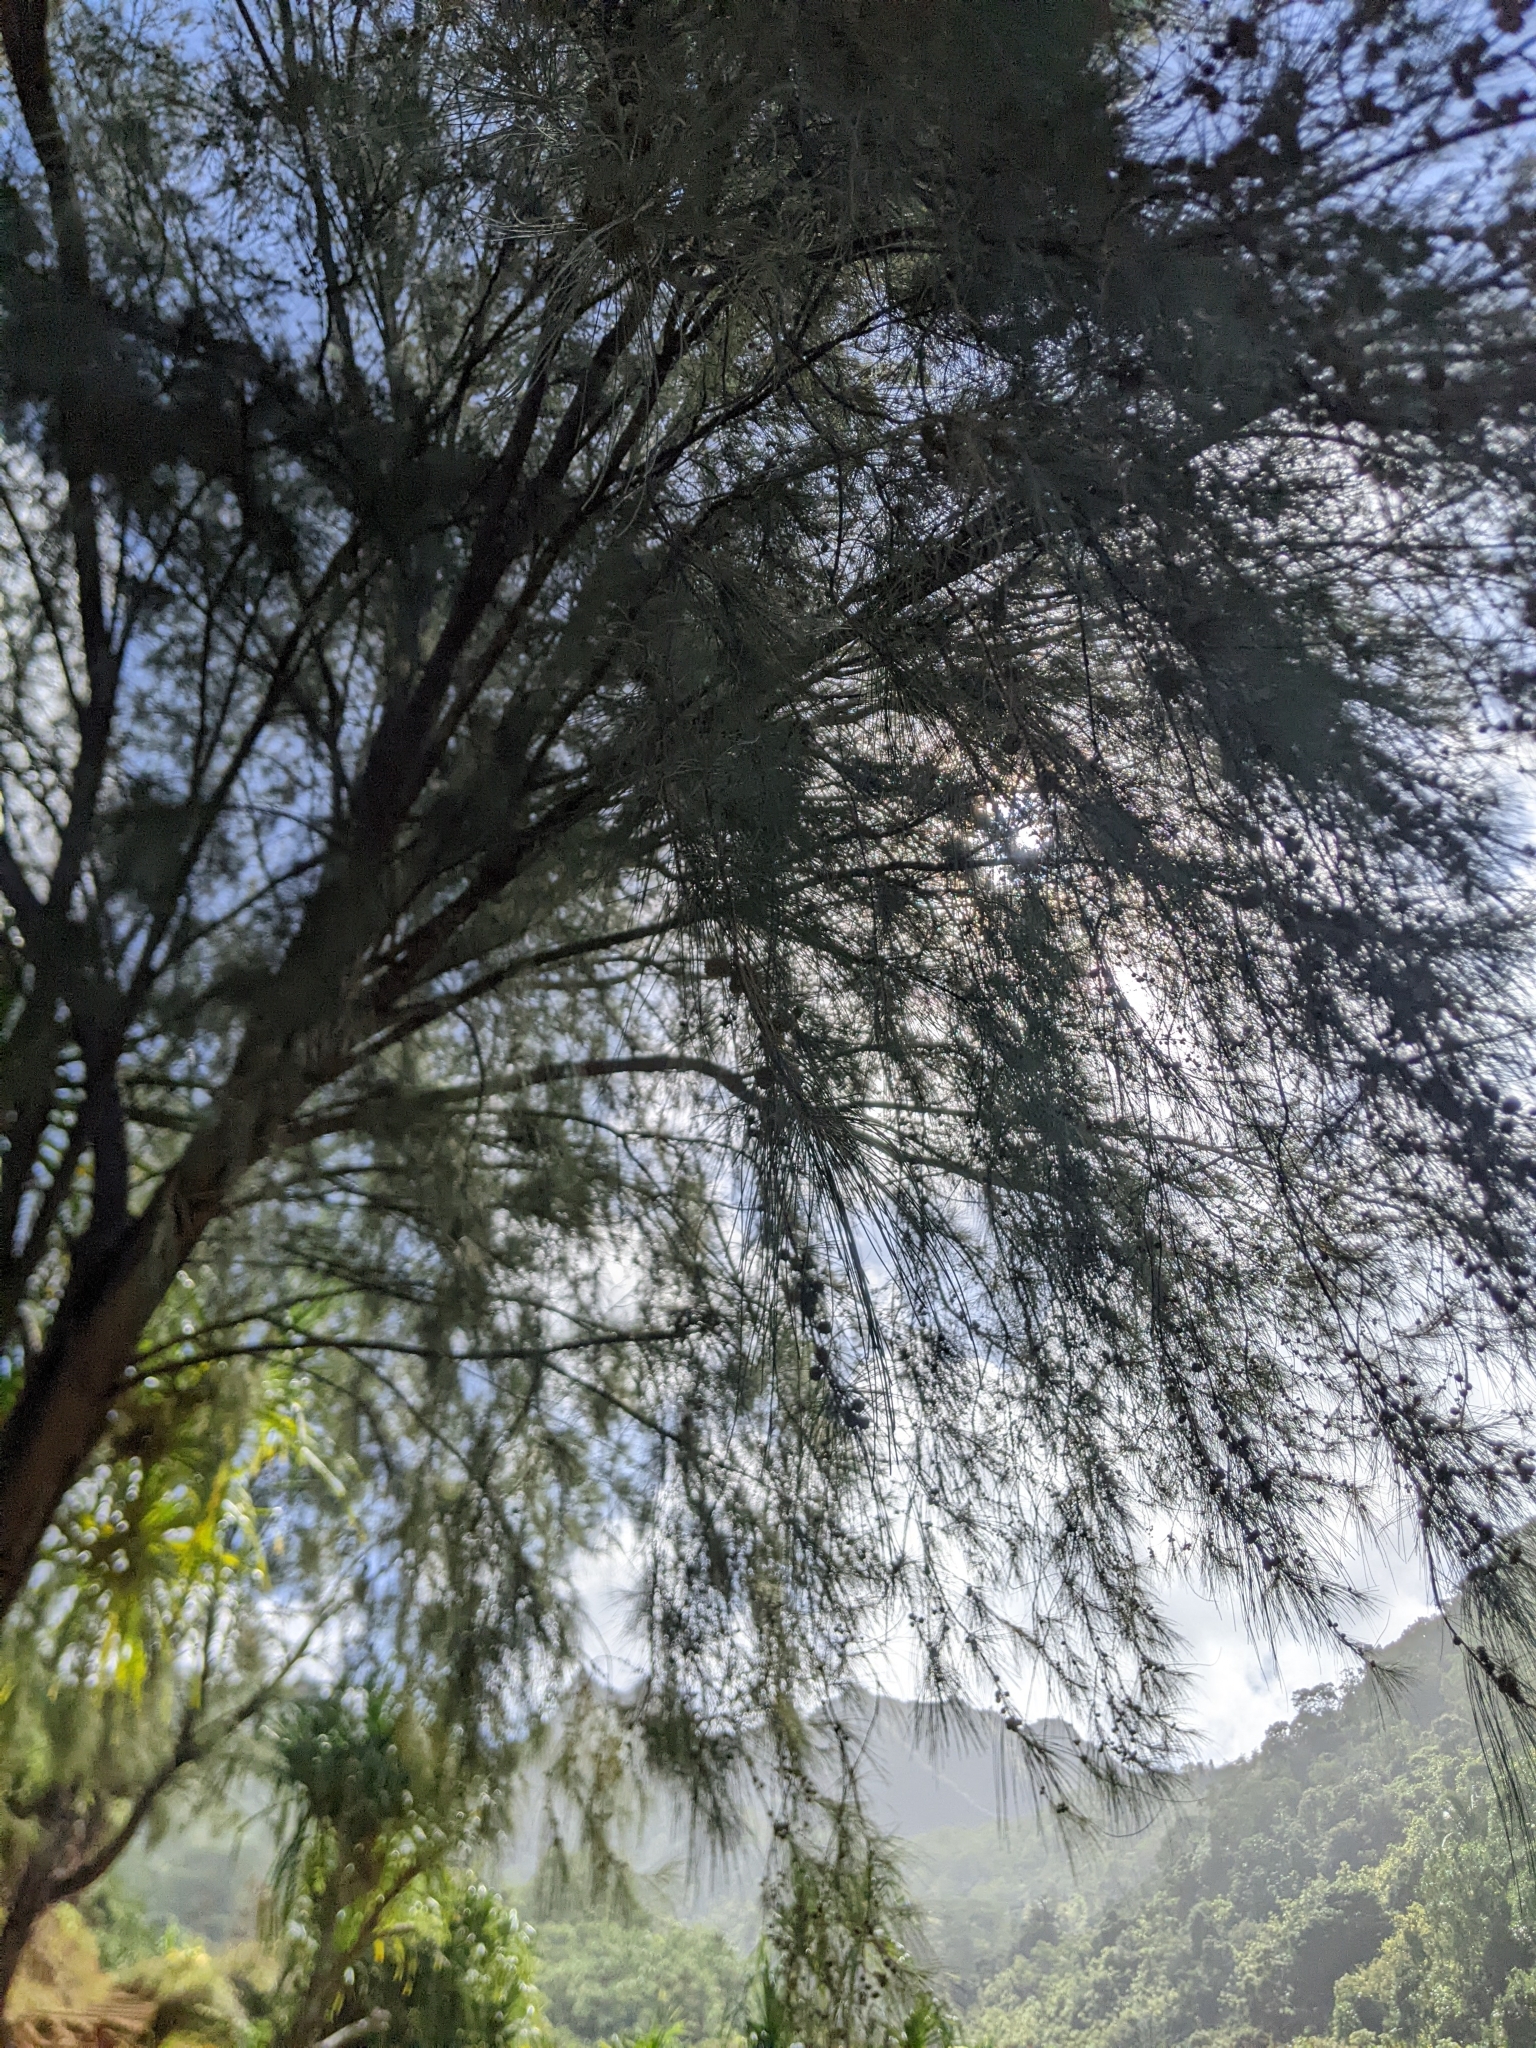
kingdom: Plantae
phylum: Tracheophyta
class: Magnoliopsida
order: Fagales
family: Casuarinaceae
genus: Casuarina
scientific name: Casuarina equisetifolia
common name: Beach sheoak
